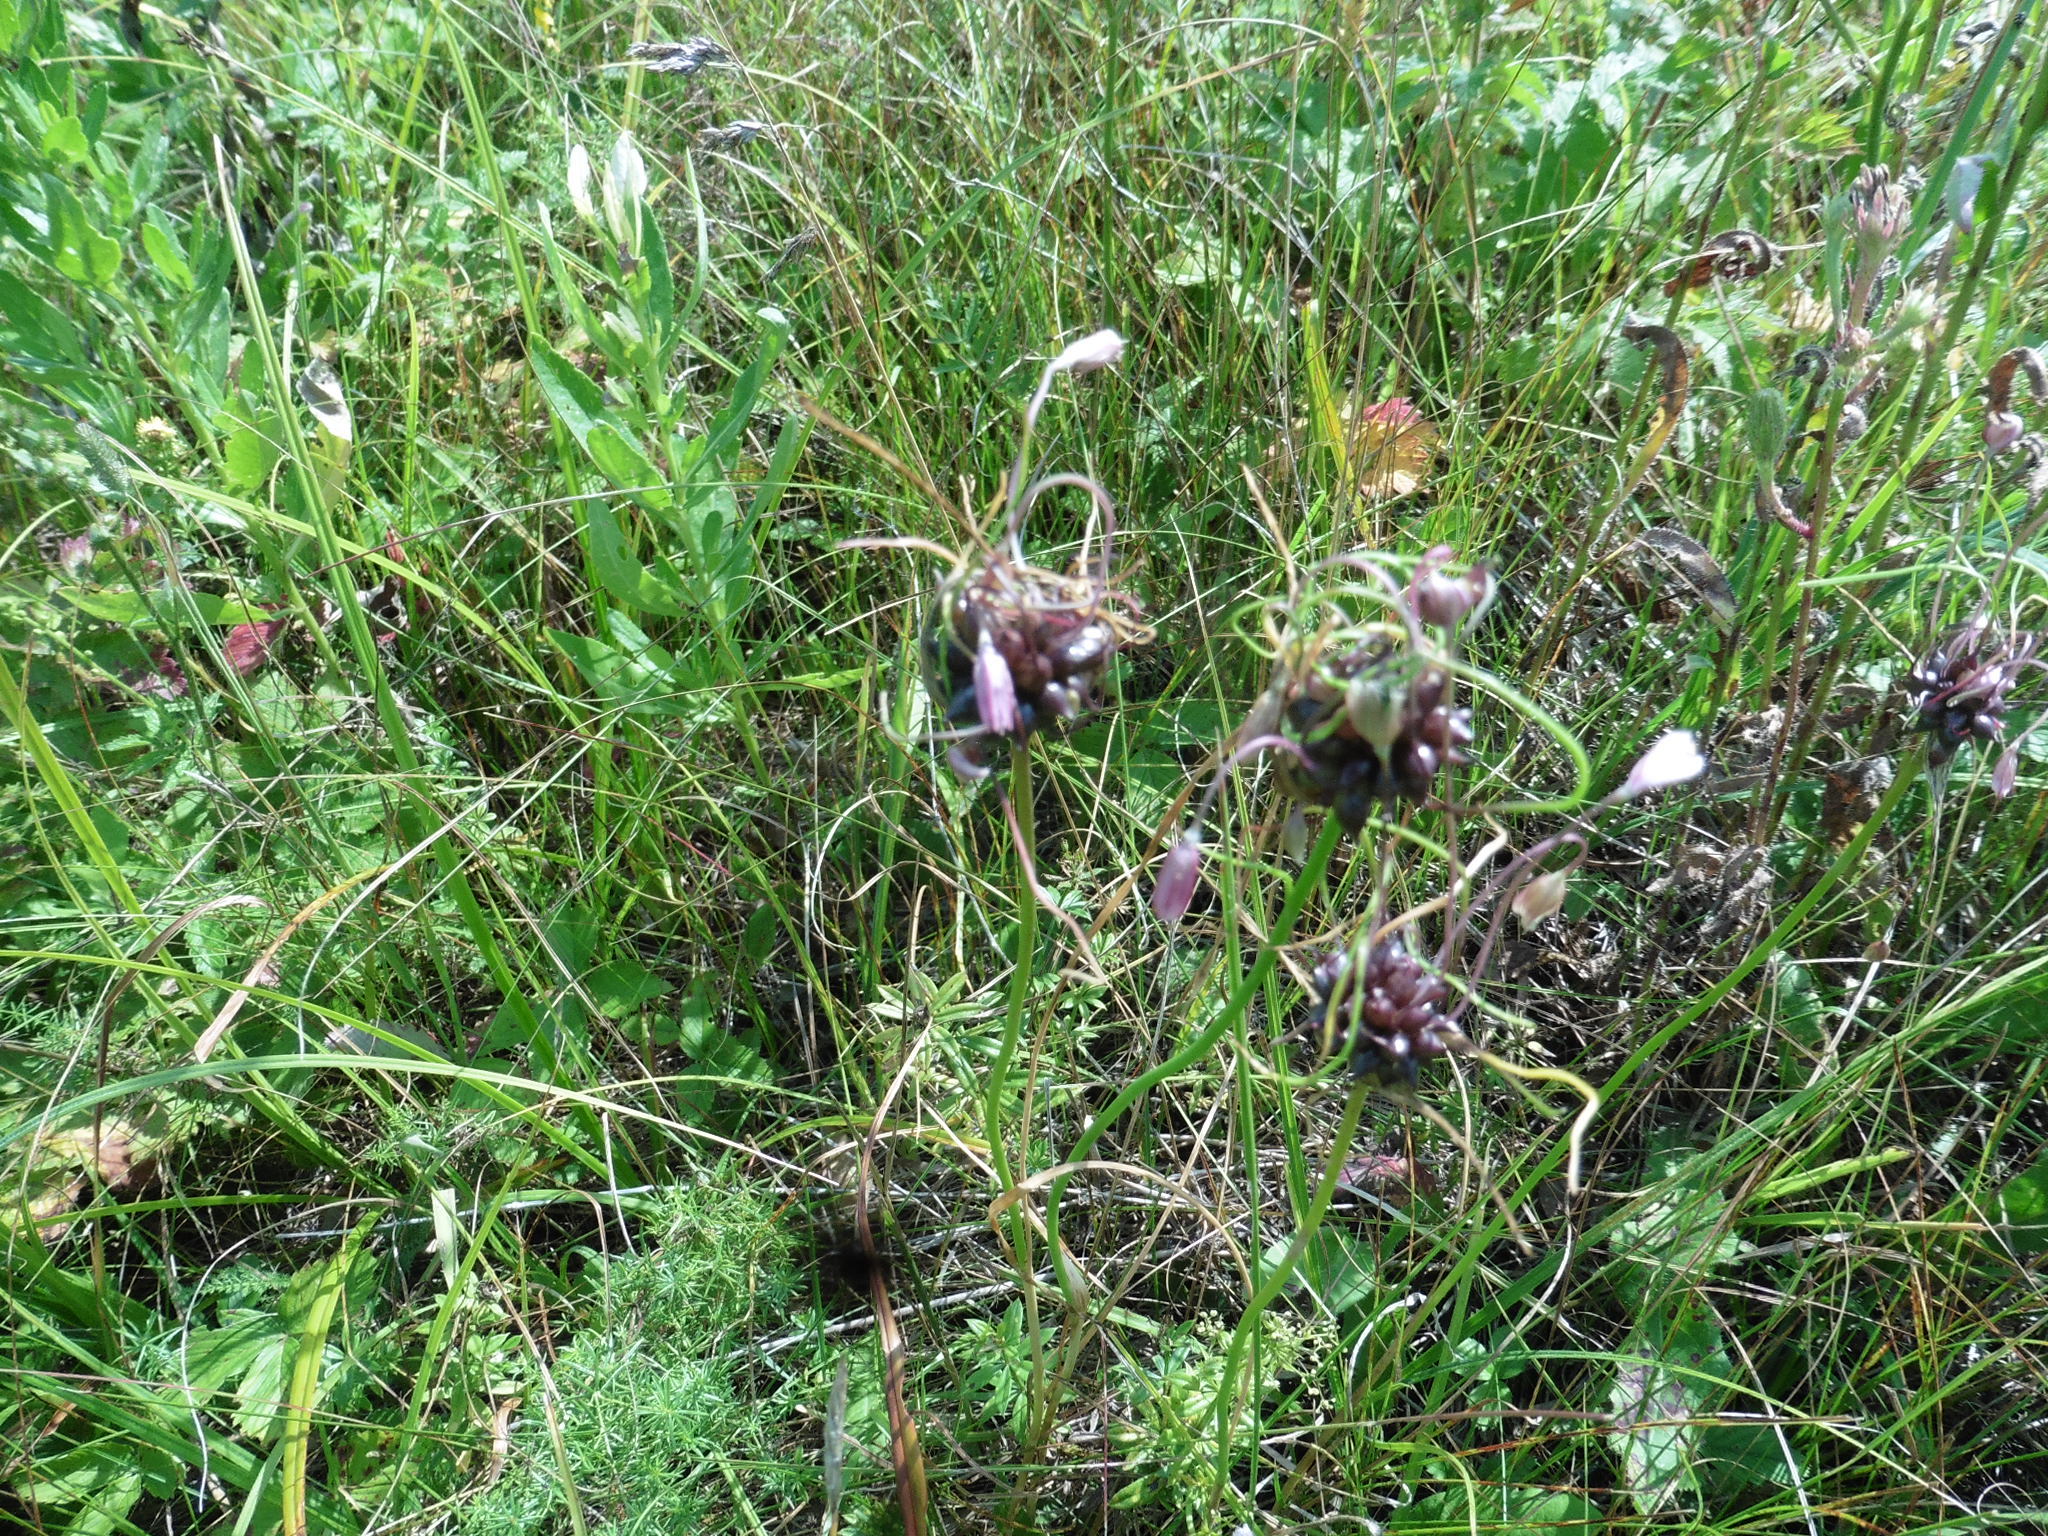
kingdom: Plantae
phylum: Tracheophyta
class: Liliopsida
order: Asparagales
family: Amaryllidaceae
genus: Allium
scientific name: Allium oleraceum
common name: Field garlic
